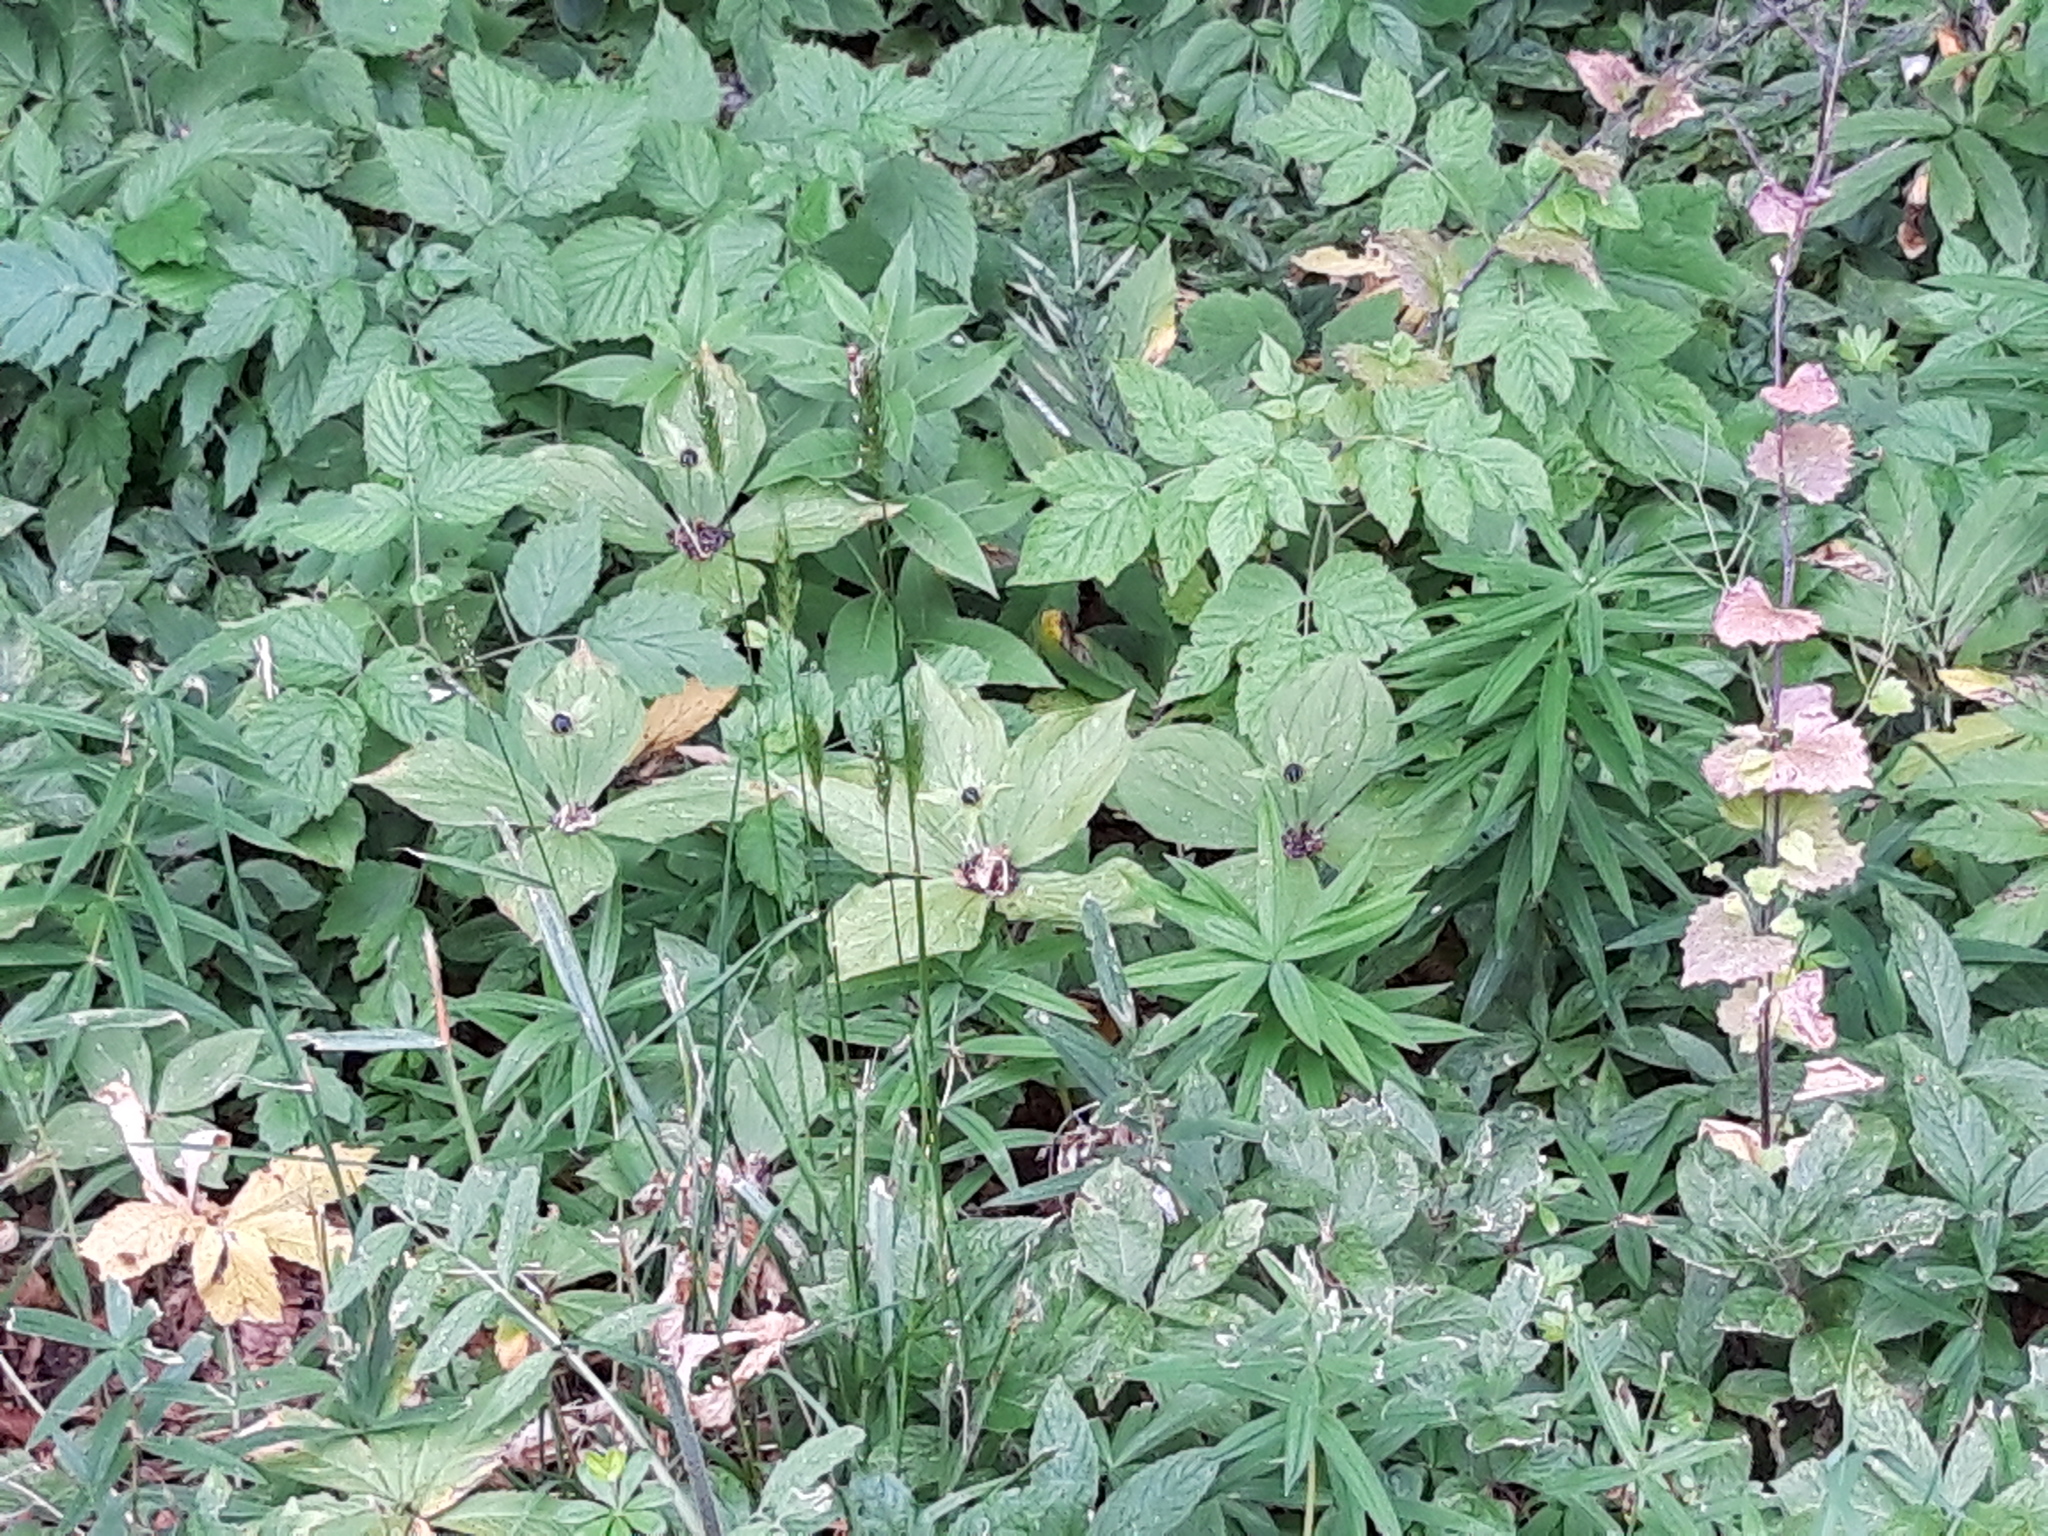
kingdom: Plantae
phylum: Tracheophyta
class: Liliopsida
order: Liliales
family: Melanthiaceae
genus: Paris
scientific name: Paris quadrifolia
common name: Herb-paris
